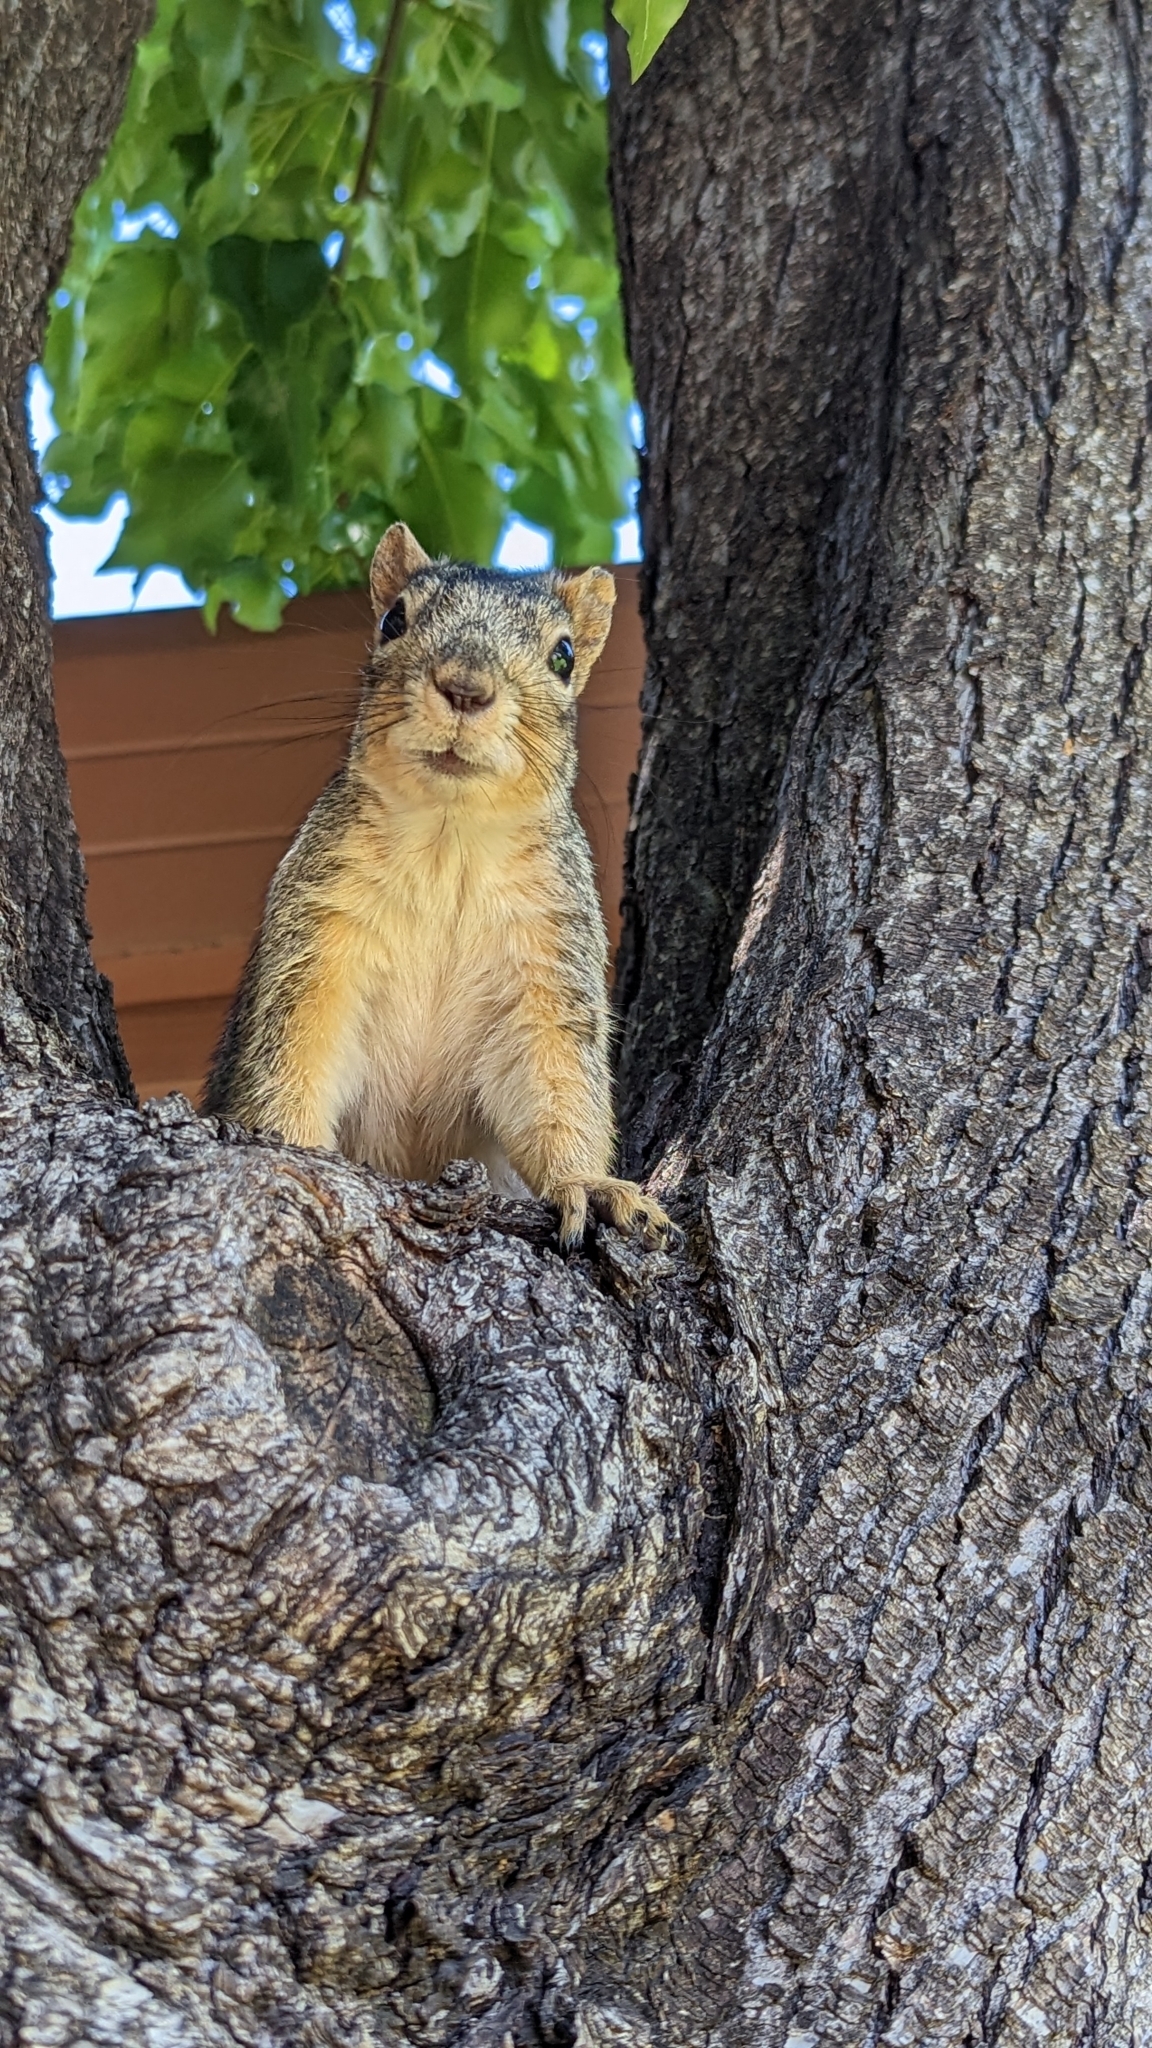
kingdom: Animalia
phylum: Chordata
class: Mammalia
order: Rodentia
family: Sciuridae
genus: Sciurus
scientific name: Sciurus niger
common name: Fox squirrel
